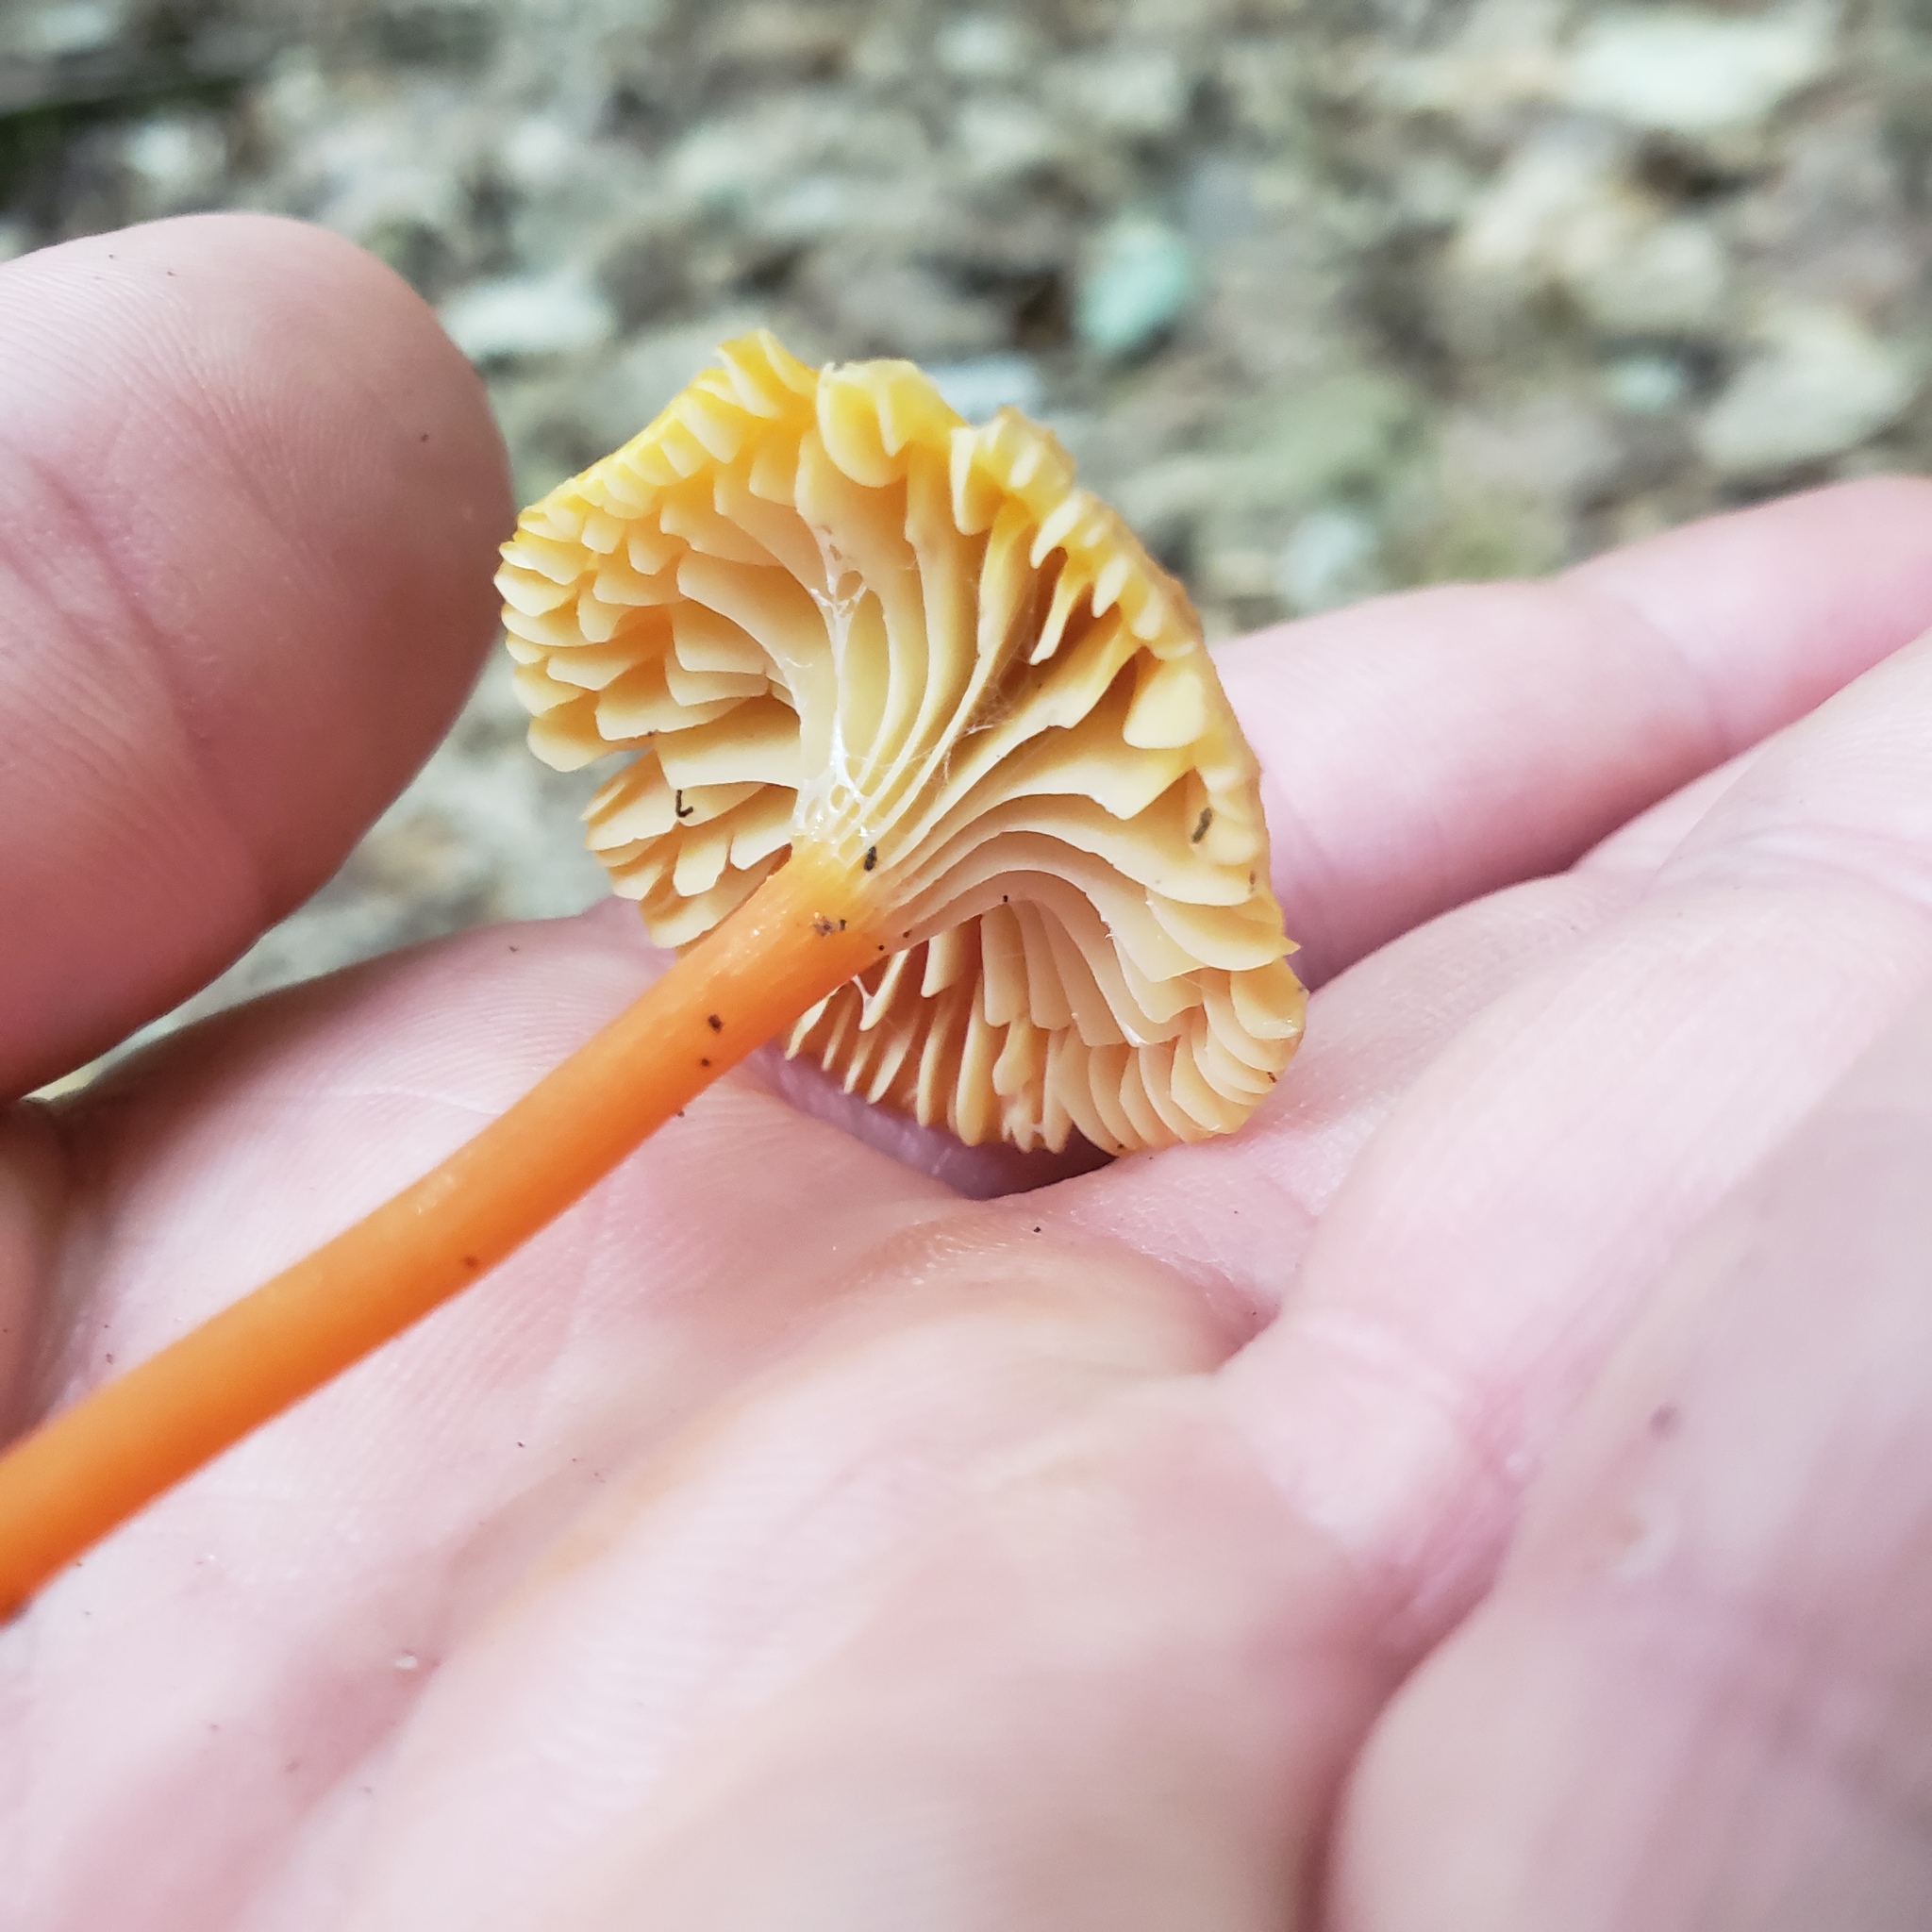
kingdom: Fungi
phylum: Basidiomycota
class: Agaricomycetes
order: Agaricales
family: Hygrophoraceae
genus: Hygrocybe
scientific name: Hygrocybe cantharellus
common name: Goblet waxcap
